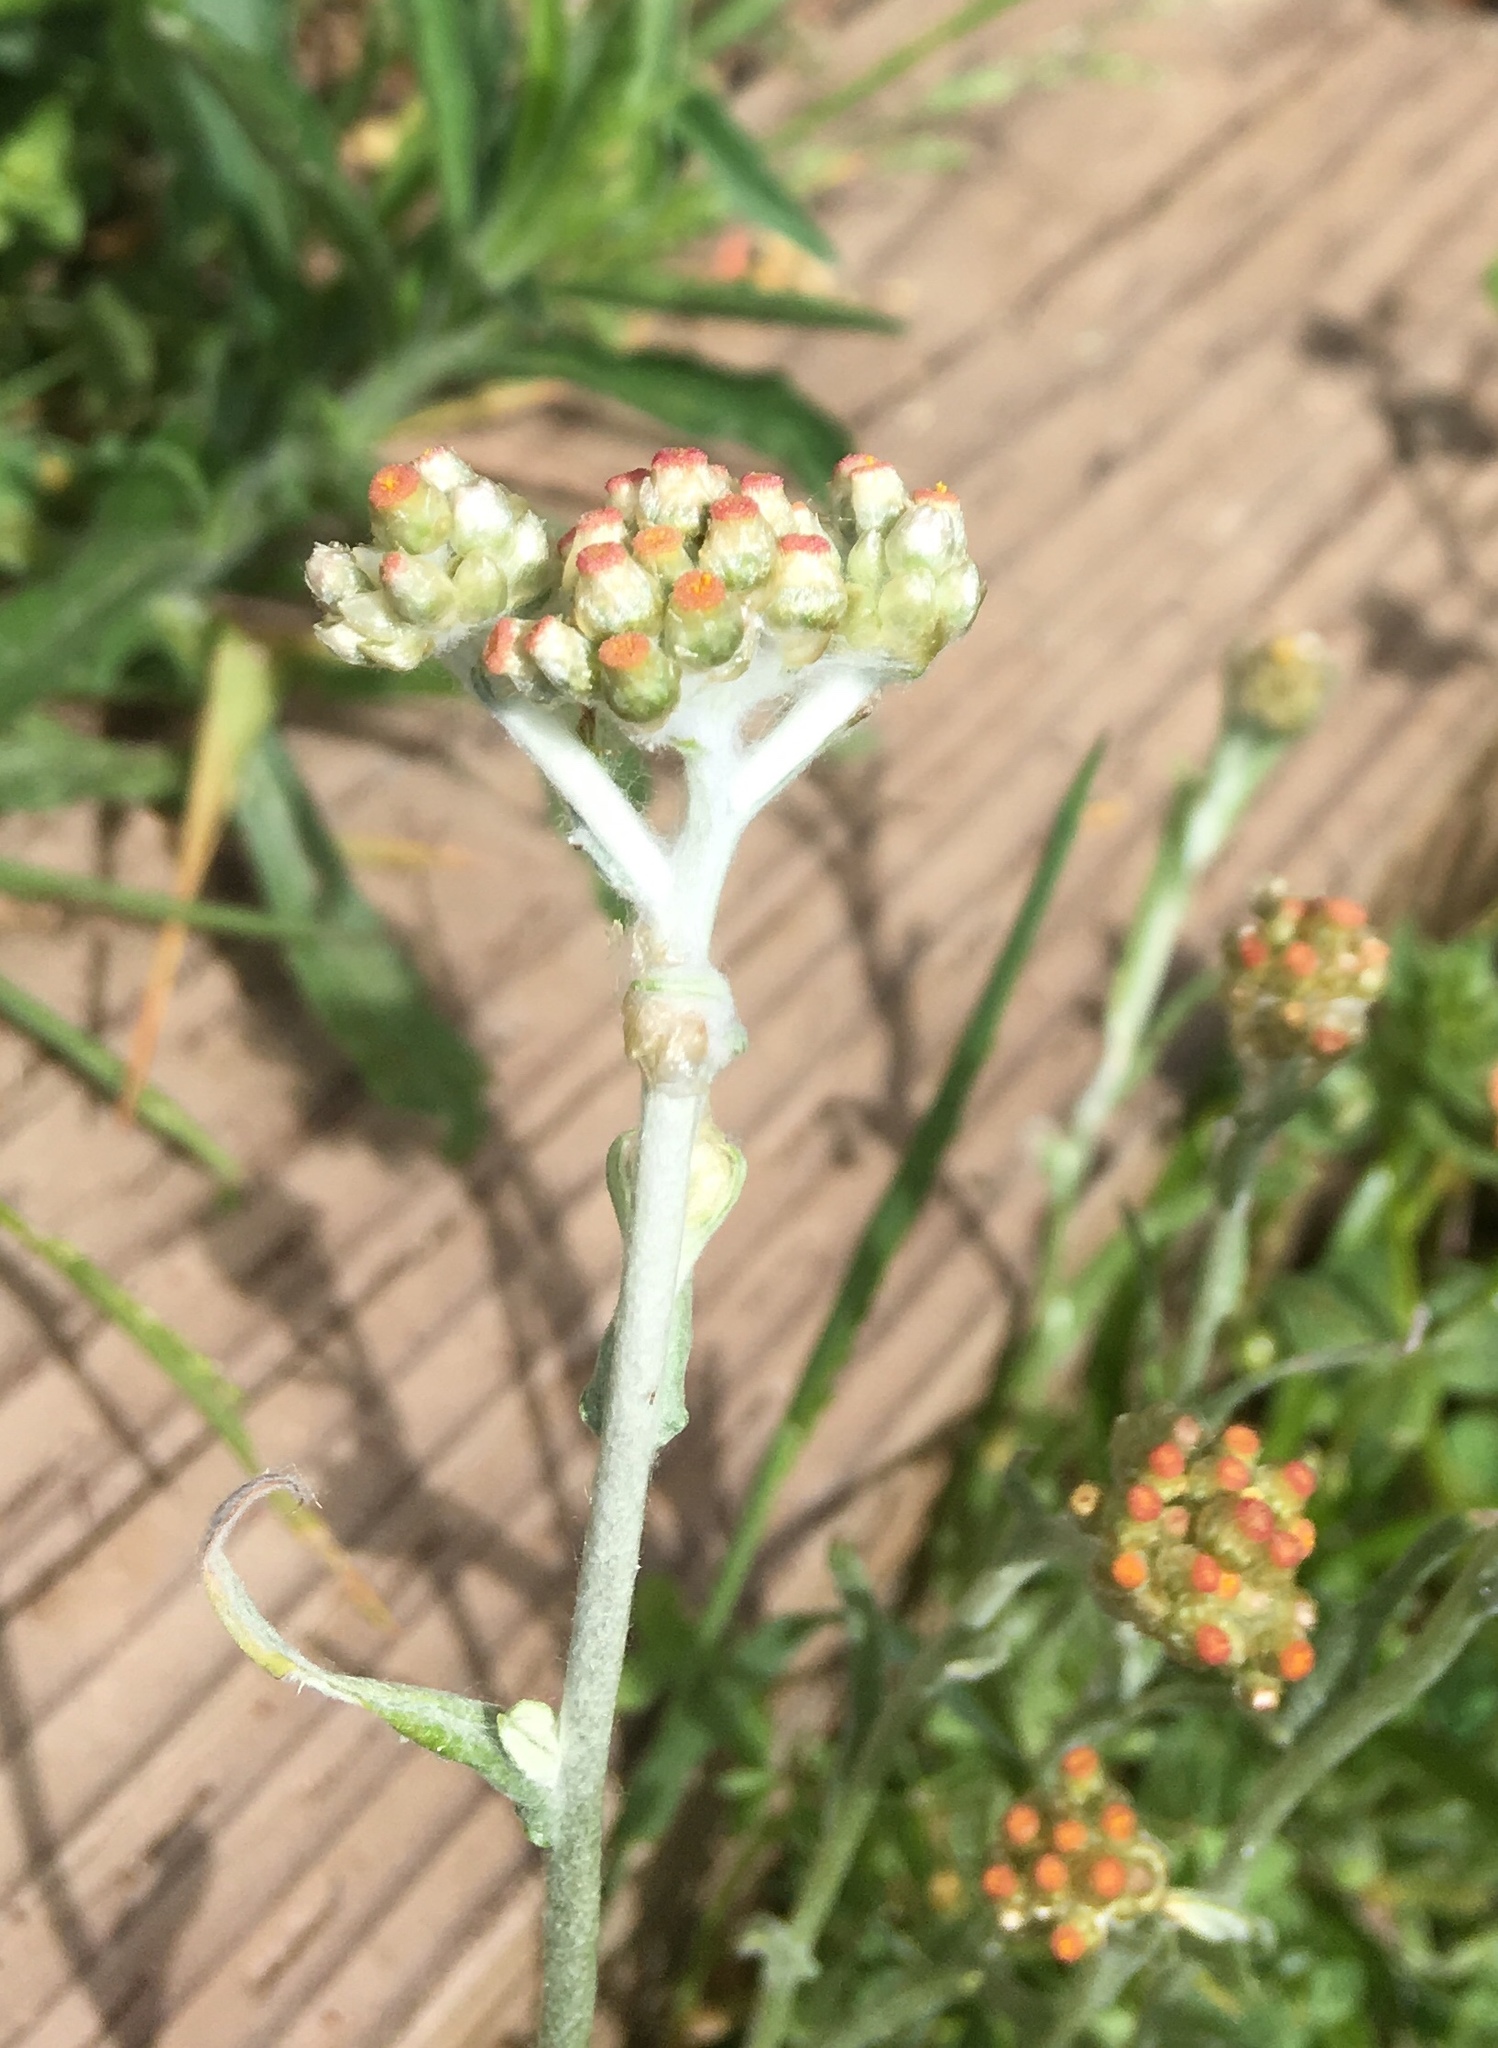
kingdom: Plantae
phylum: Tracheophyta
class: Magnoliopsida
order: Asterales
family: Asteraceae
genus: Helichrysum
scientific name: Helichrysum luteoalbum
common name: Daisy
